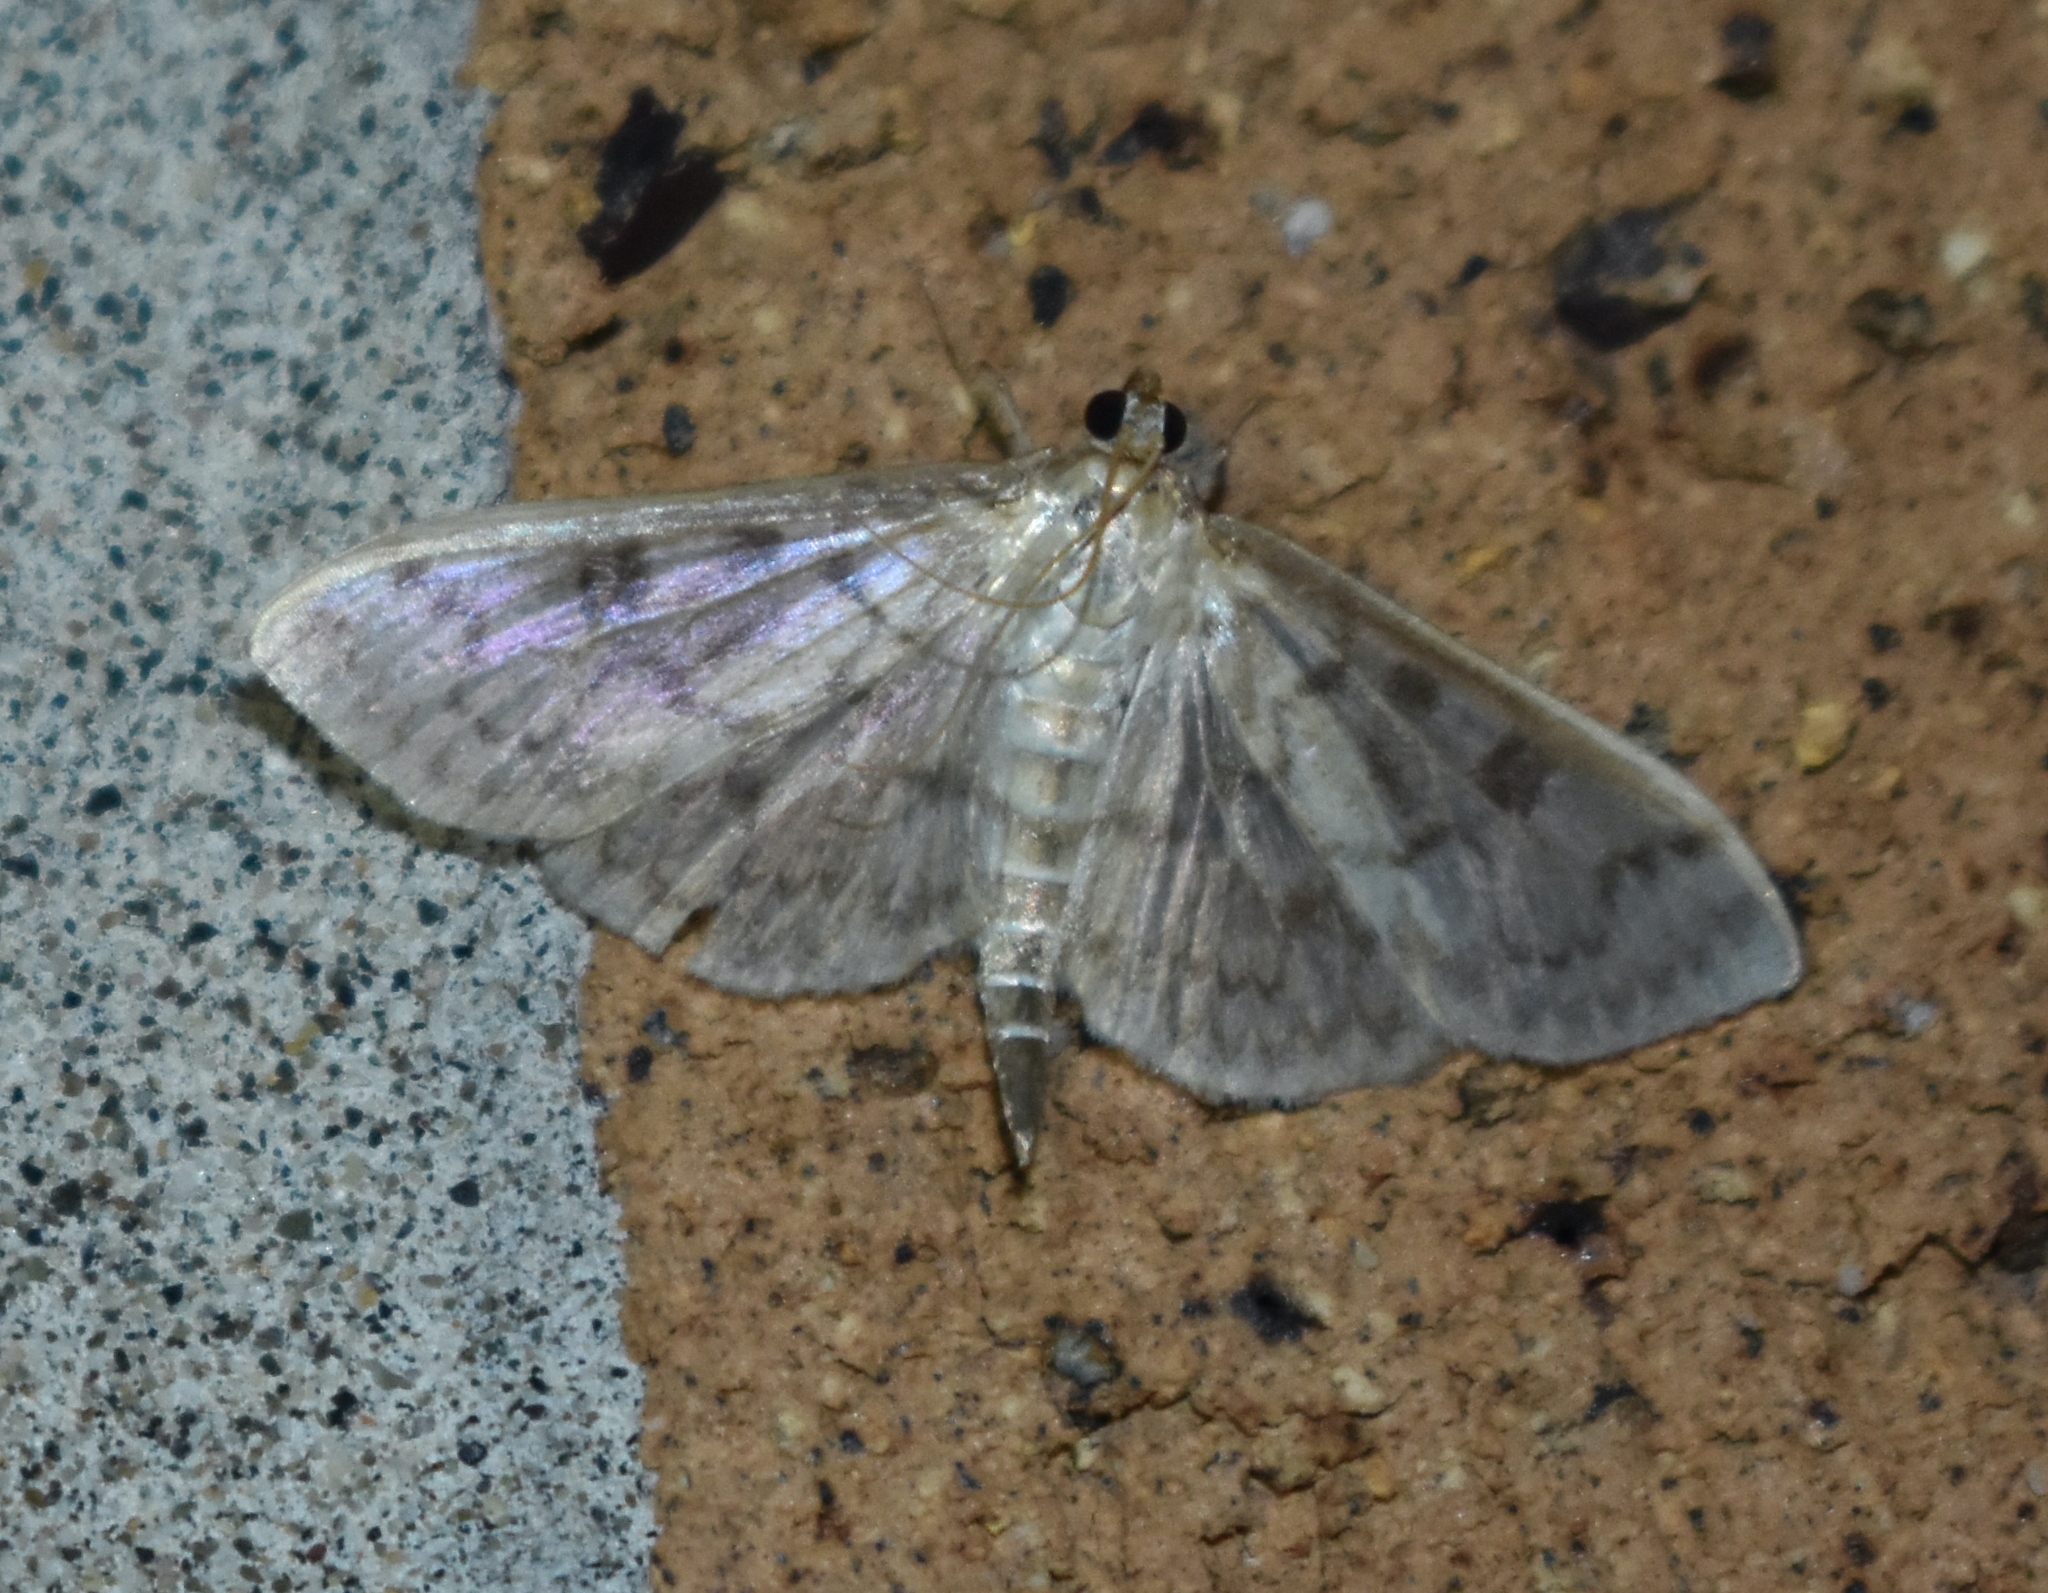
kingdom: Animalia
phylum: Arthropoda
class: Insecta
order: Lepidoptera
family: Crambidae
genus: Herpetogramma
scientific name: Herpetogramma aquilonalis
